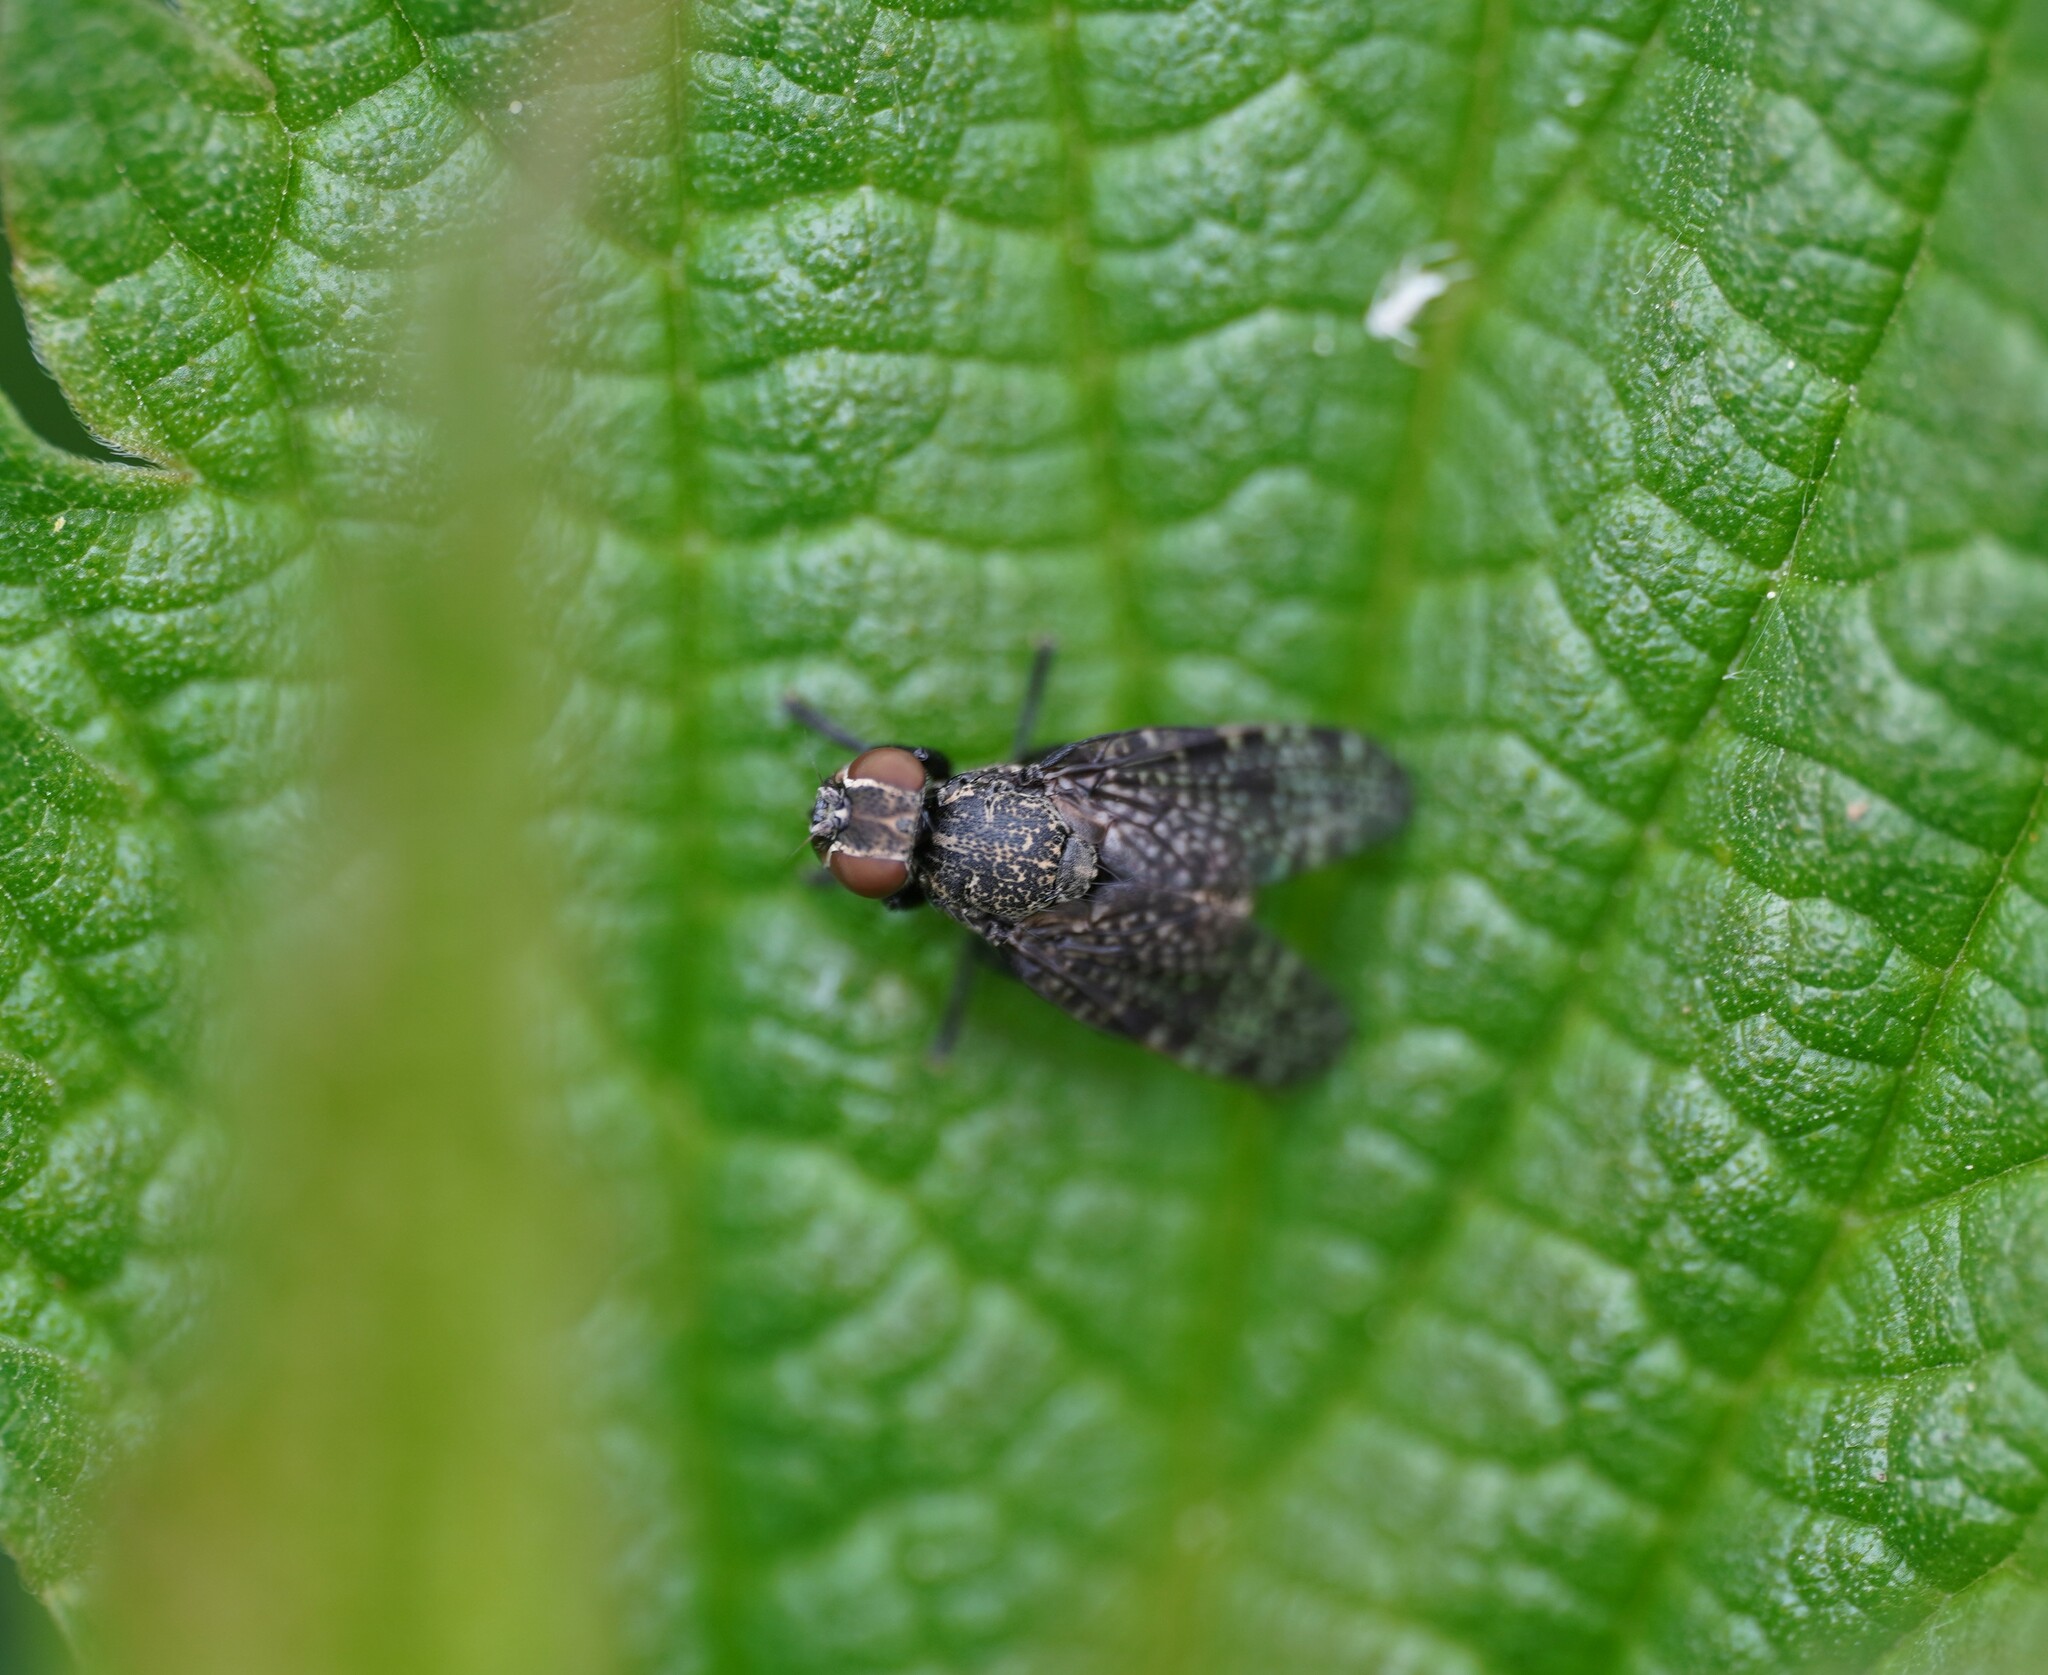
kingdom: Animalia
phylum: Arthropoda
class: Insecta
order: Diptera
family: Platystomatidae
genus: Platystoma
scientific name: Platystoma seminationis
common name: Fly
